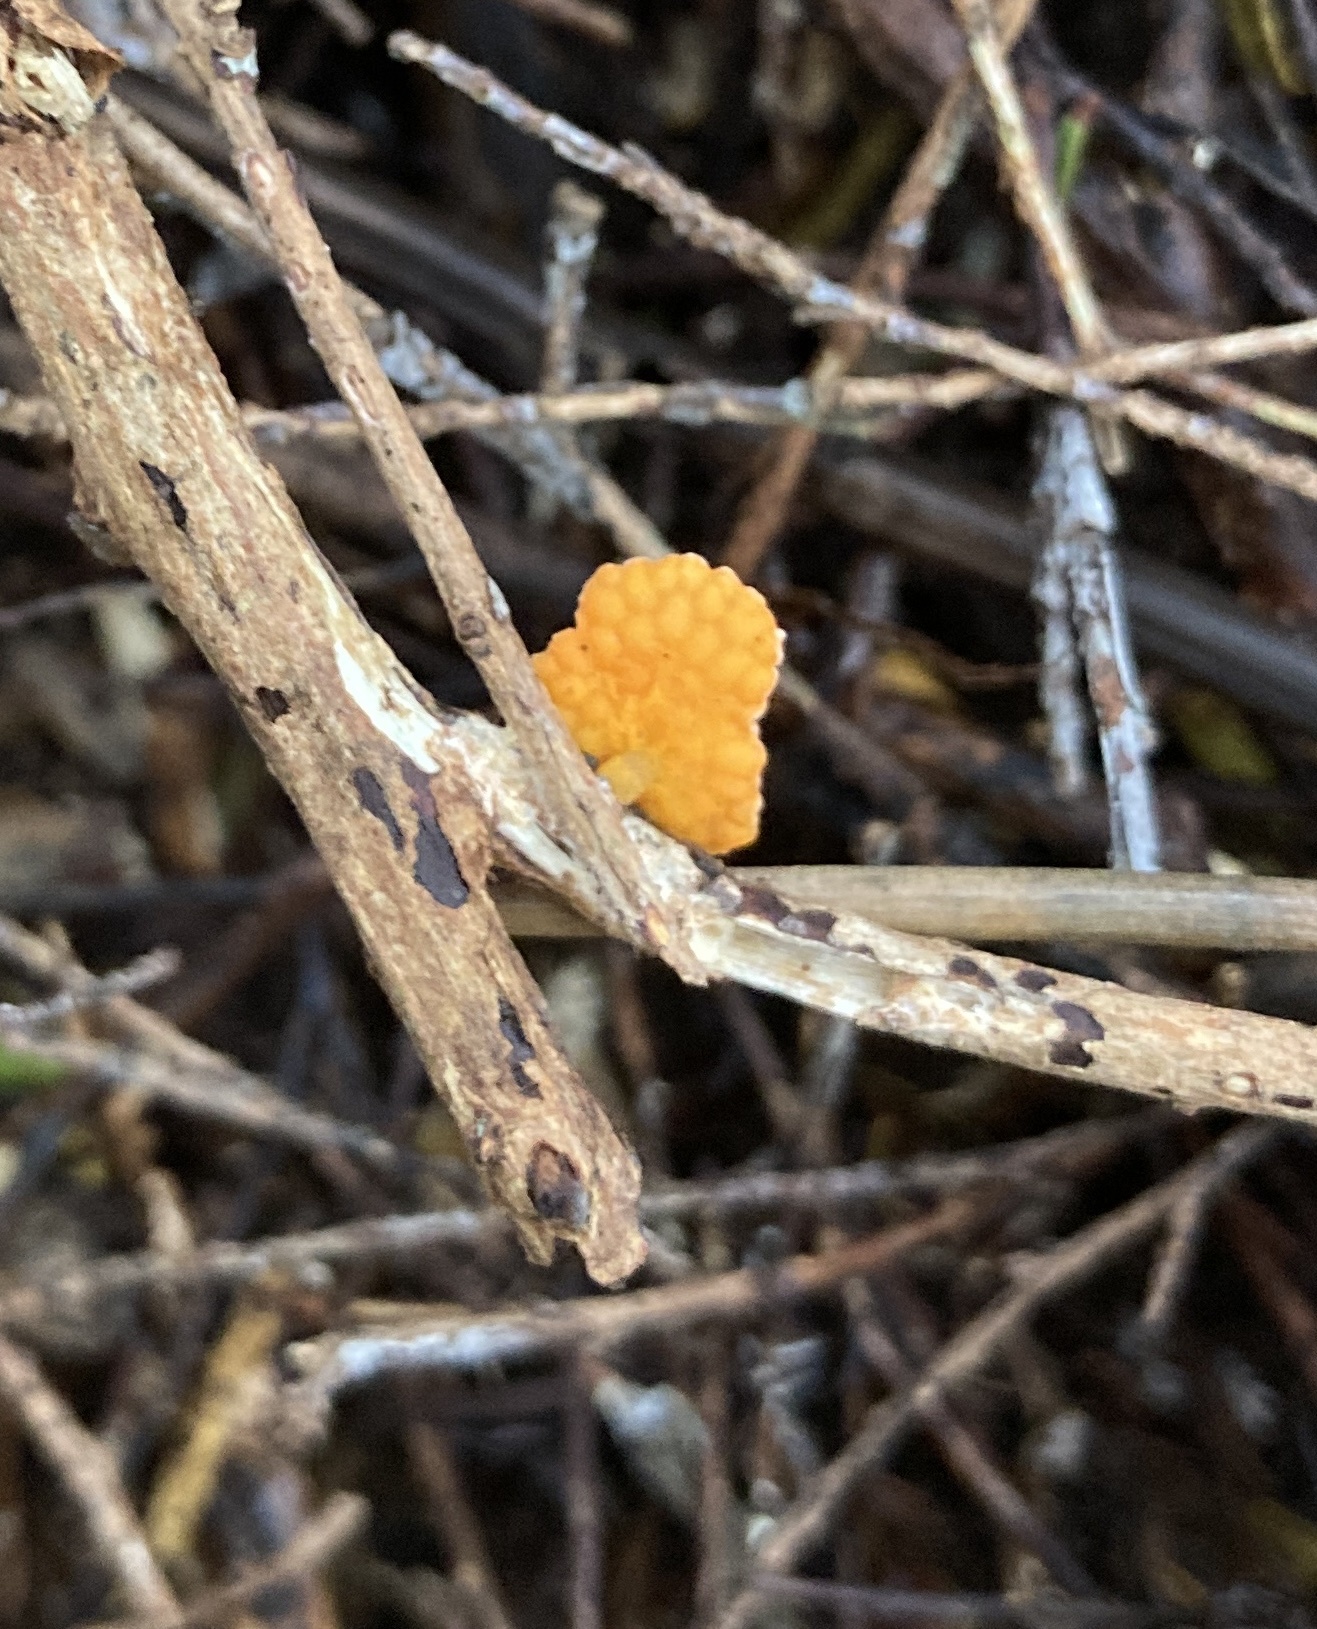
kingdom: Fungi
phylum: Basidiomycota
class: Agaricomycetes
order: Agaricales
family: Mycenaceae
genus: Favolaschia
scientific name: Favolaschia claudopus
